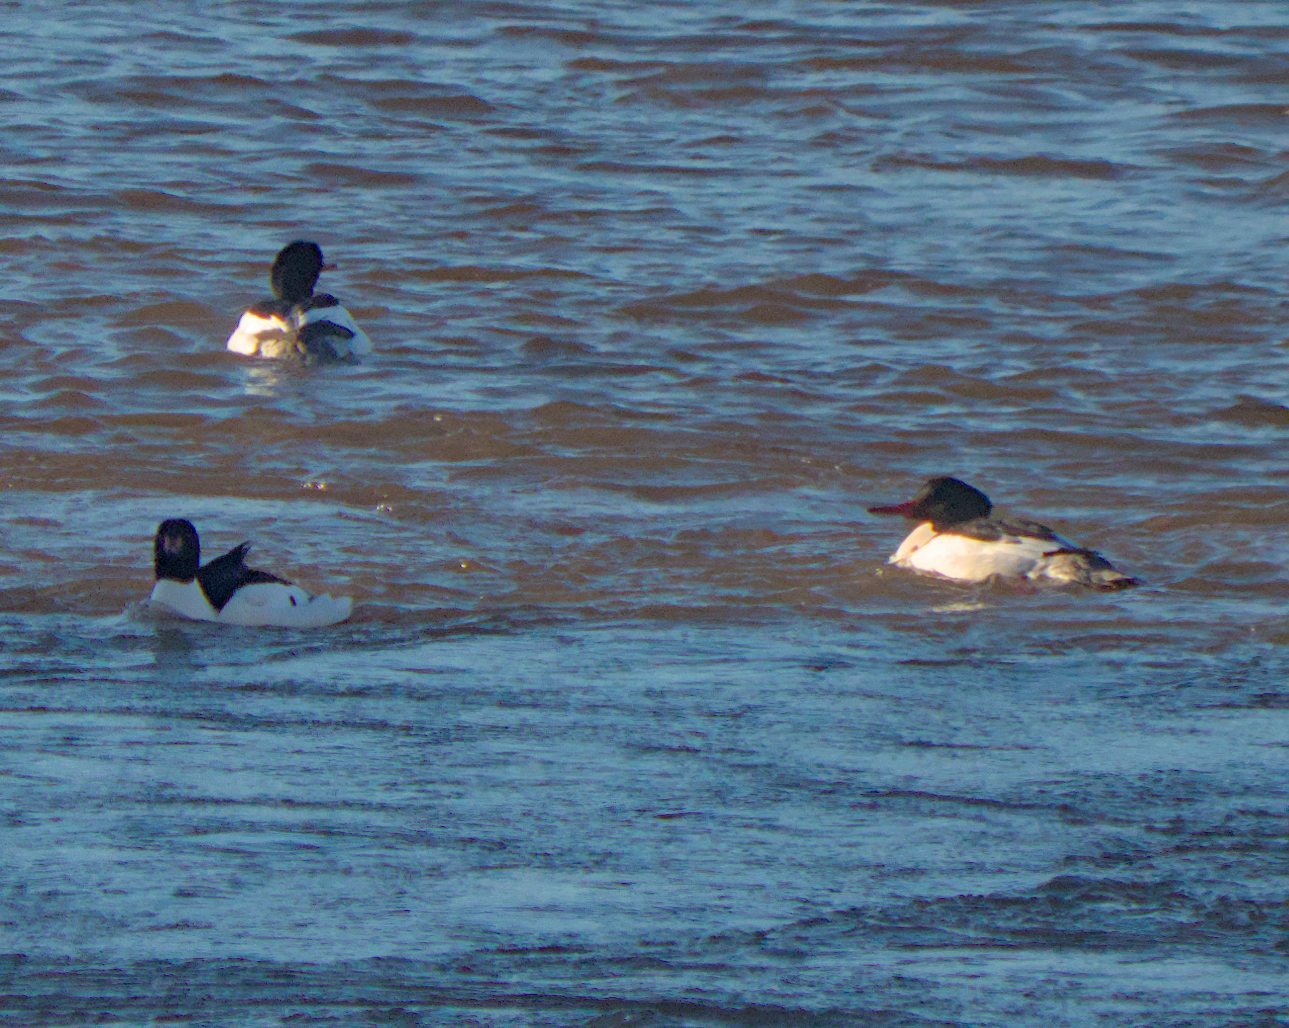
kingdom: Animalia
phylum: Chordata
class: Aves
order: Anseriformes
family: Anatidae
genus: Mergus
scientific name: Mergus merganser
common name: Common merganser
